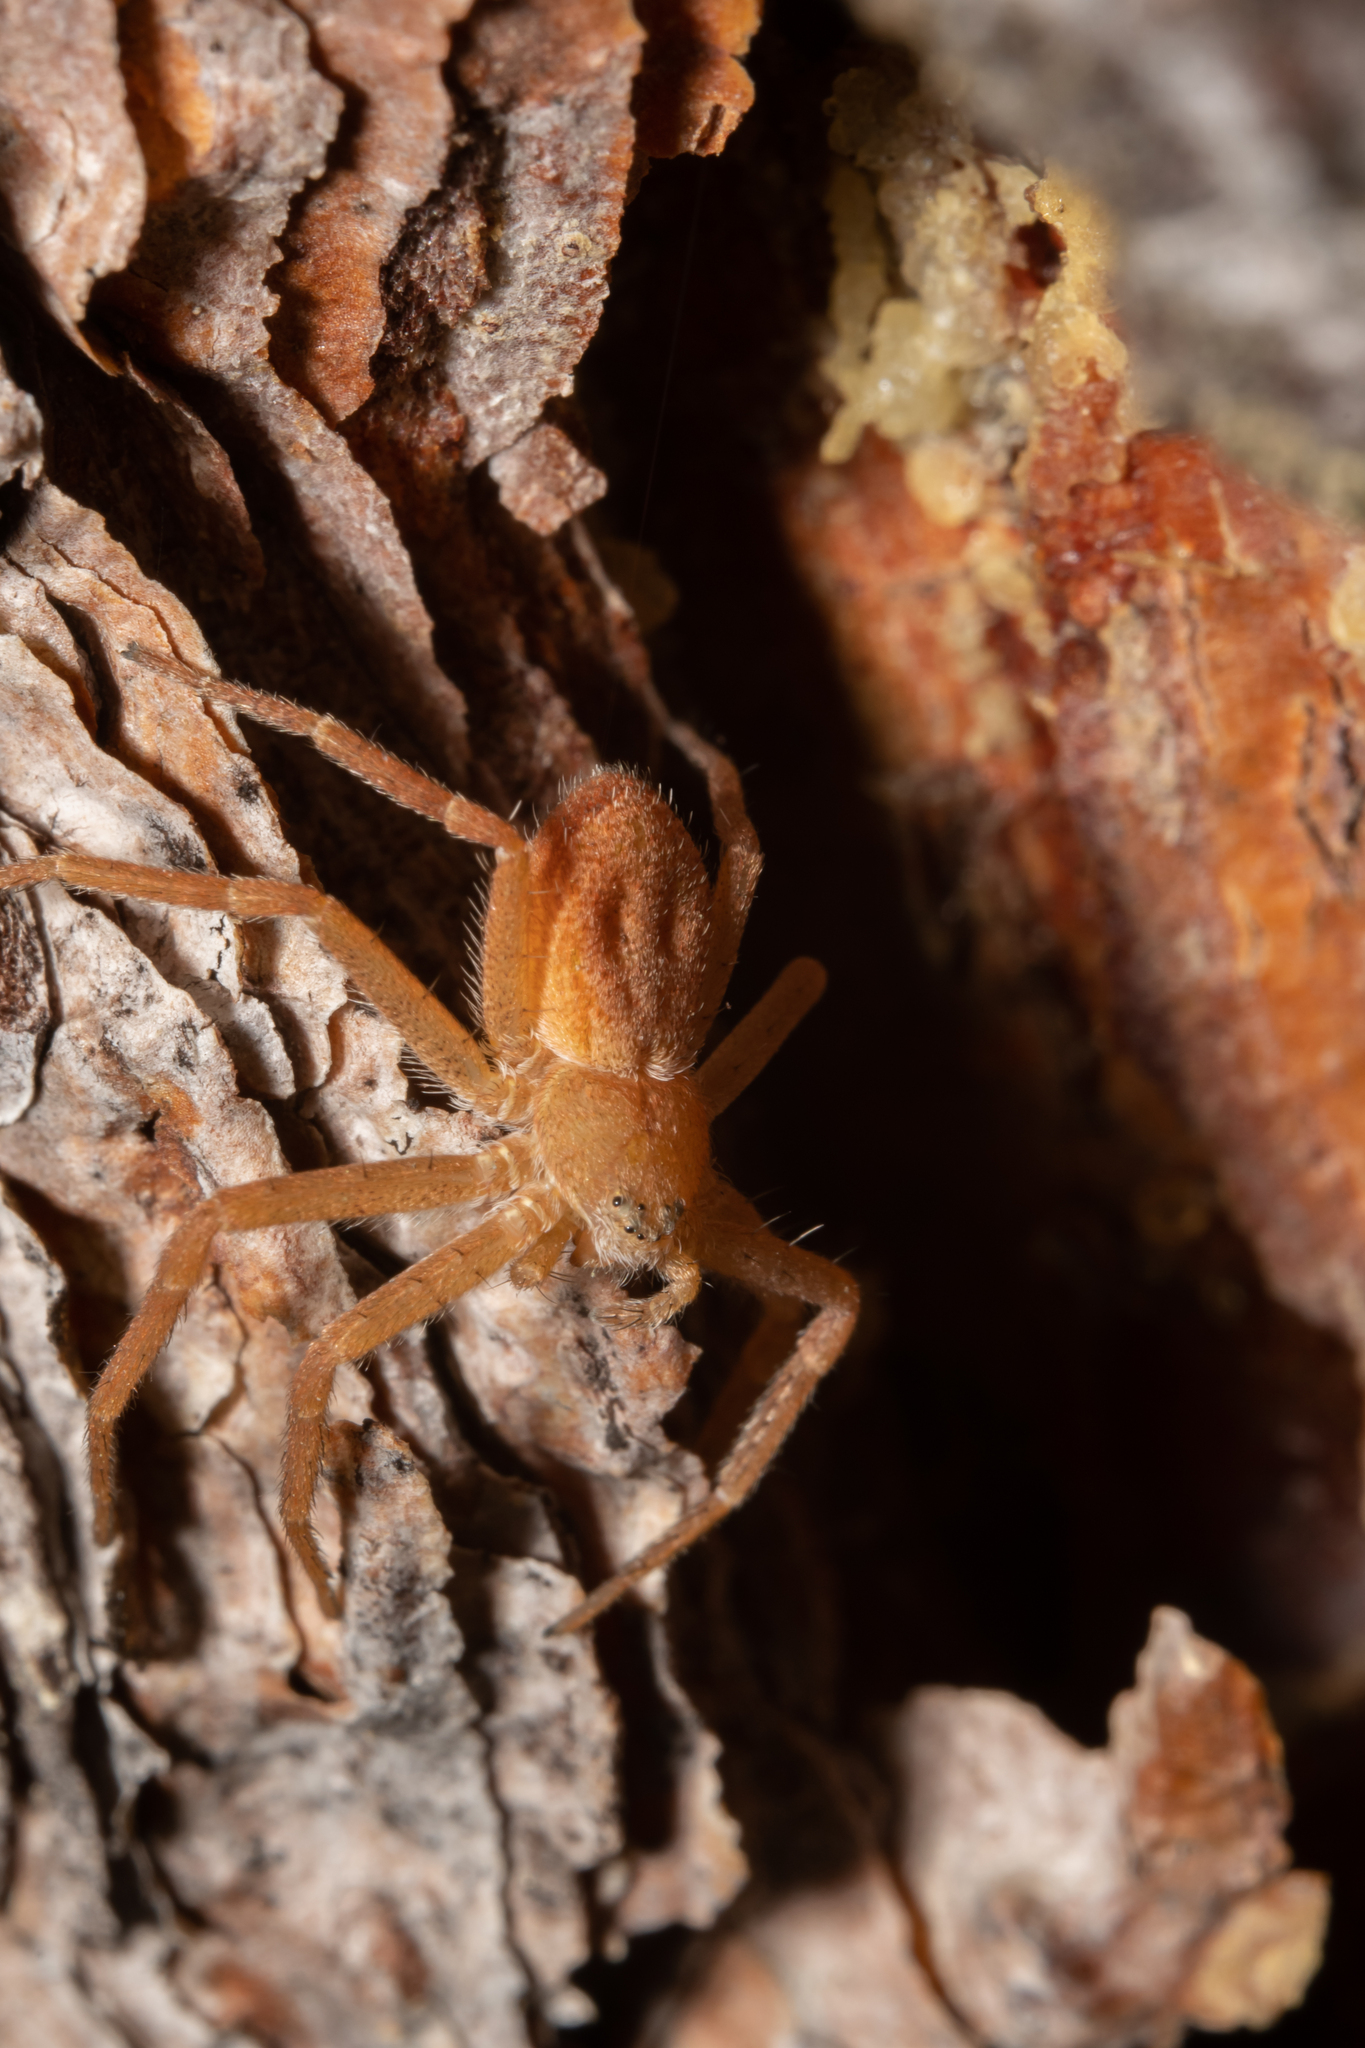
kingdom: Animalia
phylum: Arthropoda
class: Arachnida
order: Araneae
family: Philodromidae
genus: Philodromus
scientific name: Philodromus fuscomarginatus
